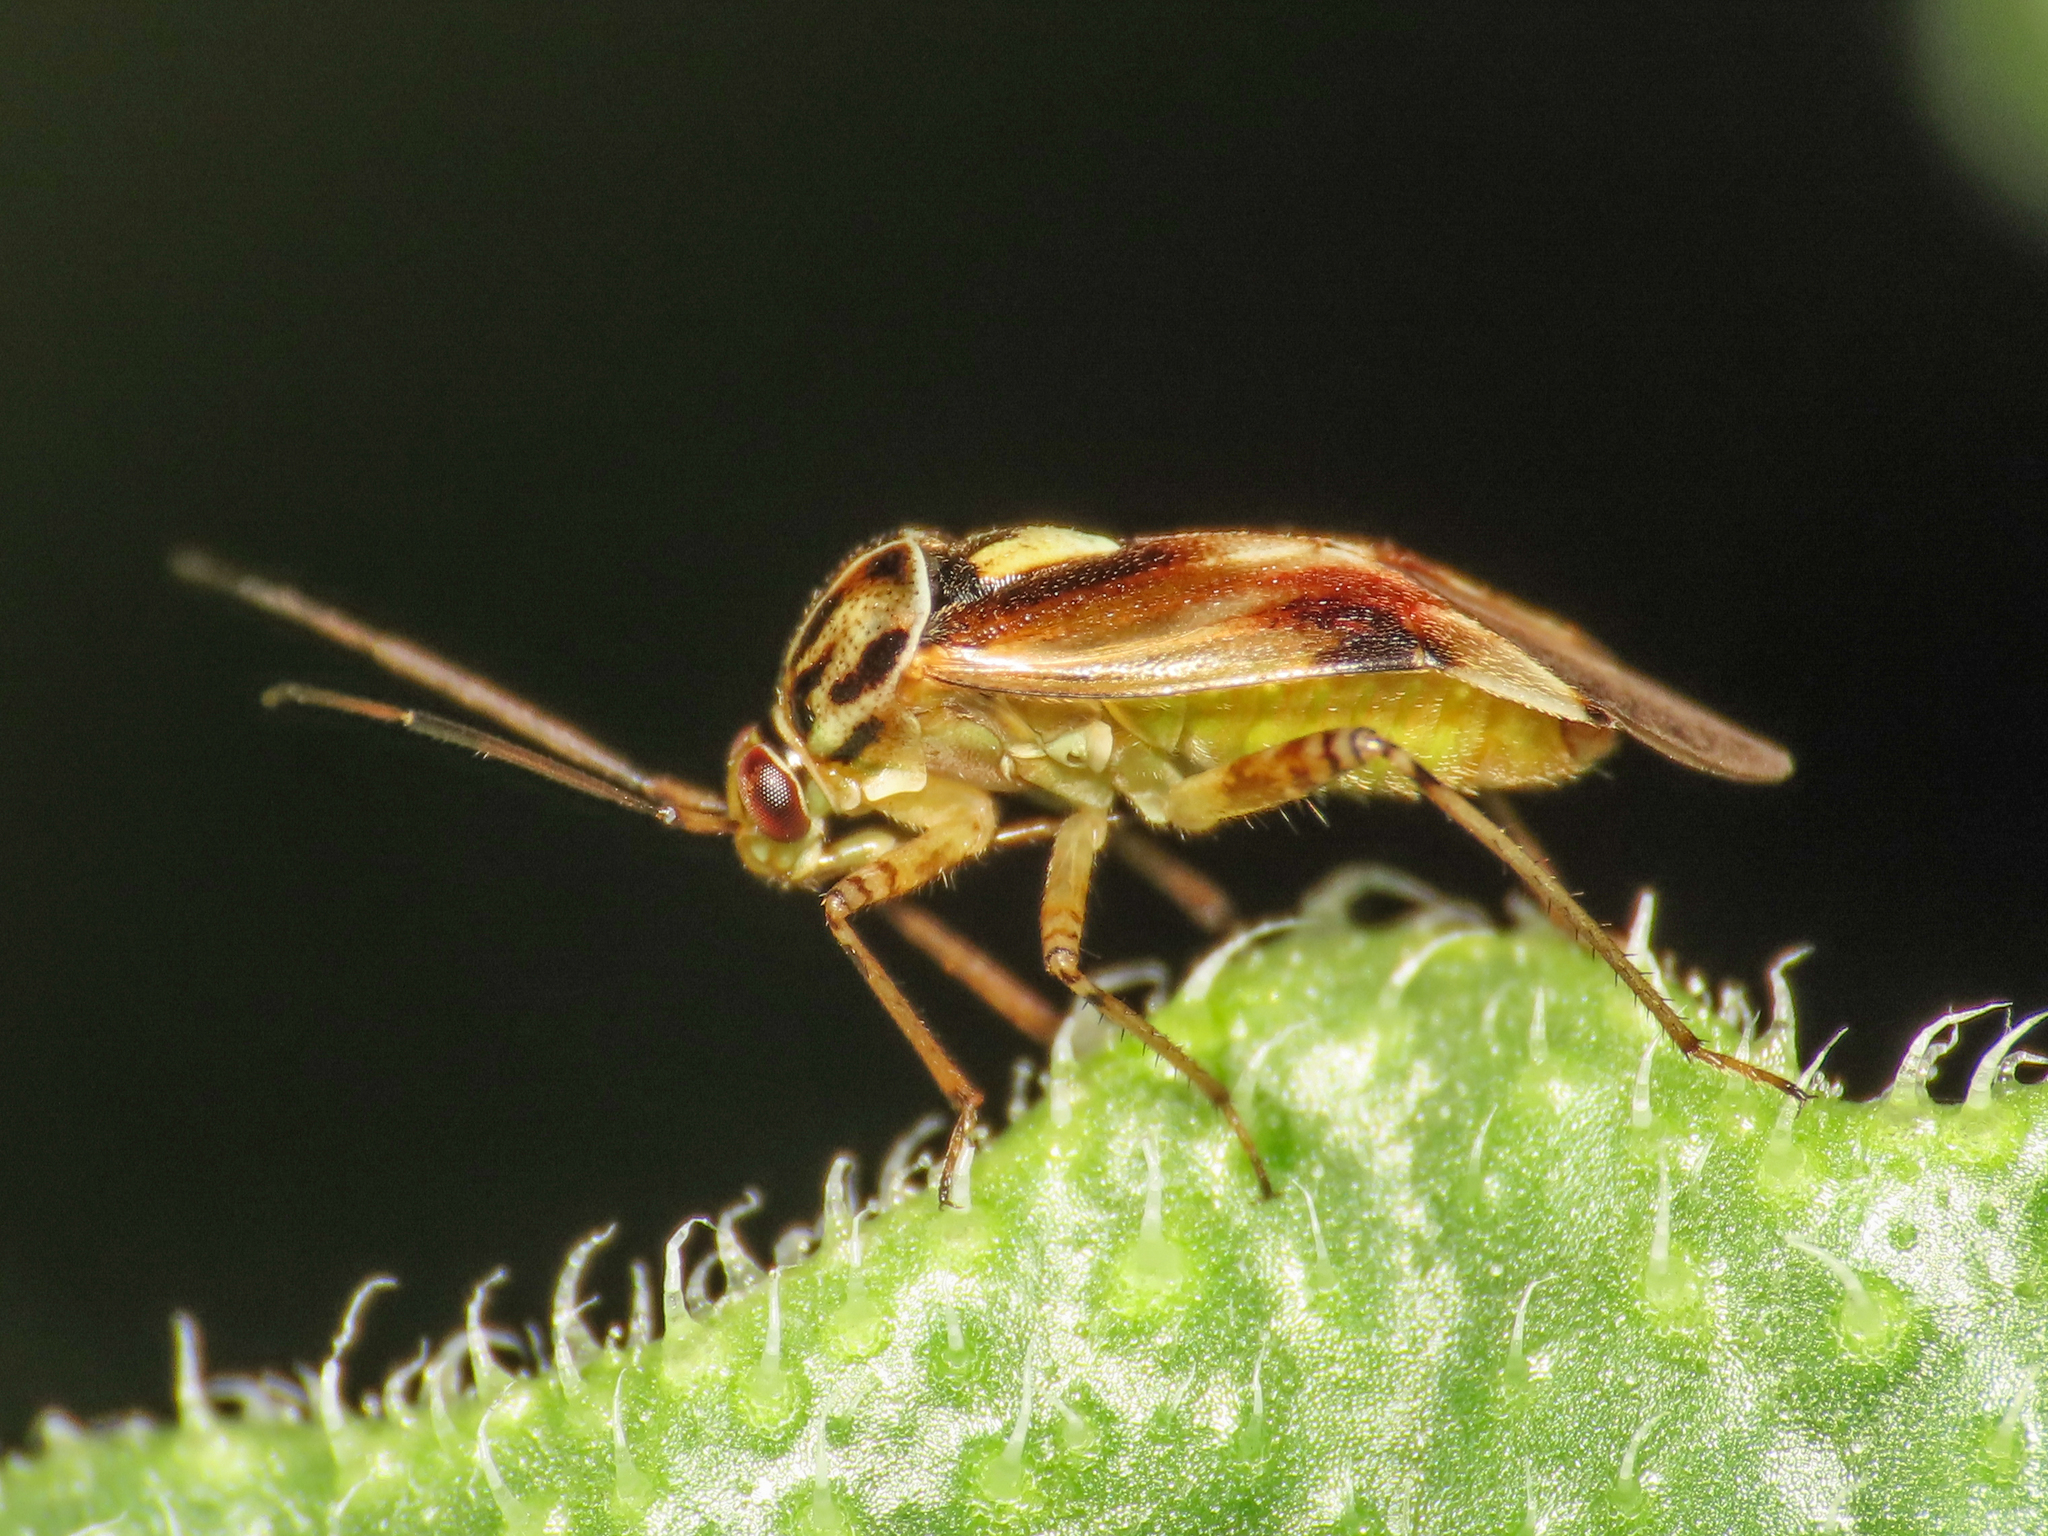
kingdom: Animalia
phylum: Arthropoda
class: Insecta
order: Hemiptera
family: Miridae
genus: Lygus
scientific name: Lygus pratensis
